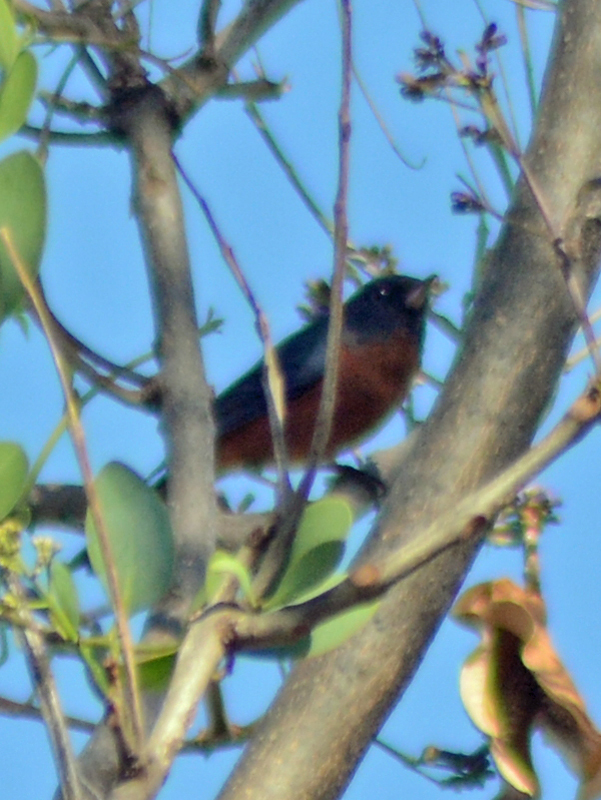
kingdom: Animalia
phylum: Chordata
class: Aves
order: Passeriformes
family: Thraupidae
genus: Diglossa
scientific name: Diglossa baritula
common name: Cinnamon-bellied flowerpiercer
